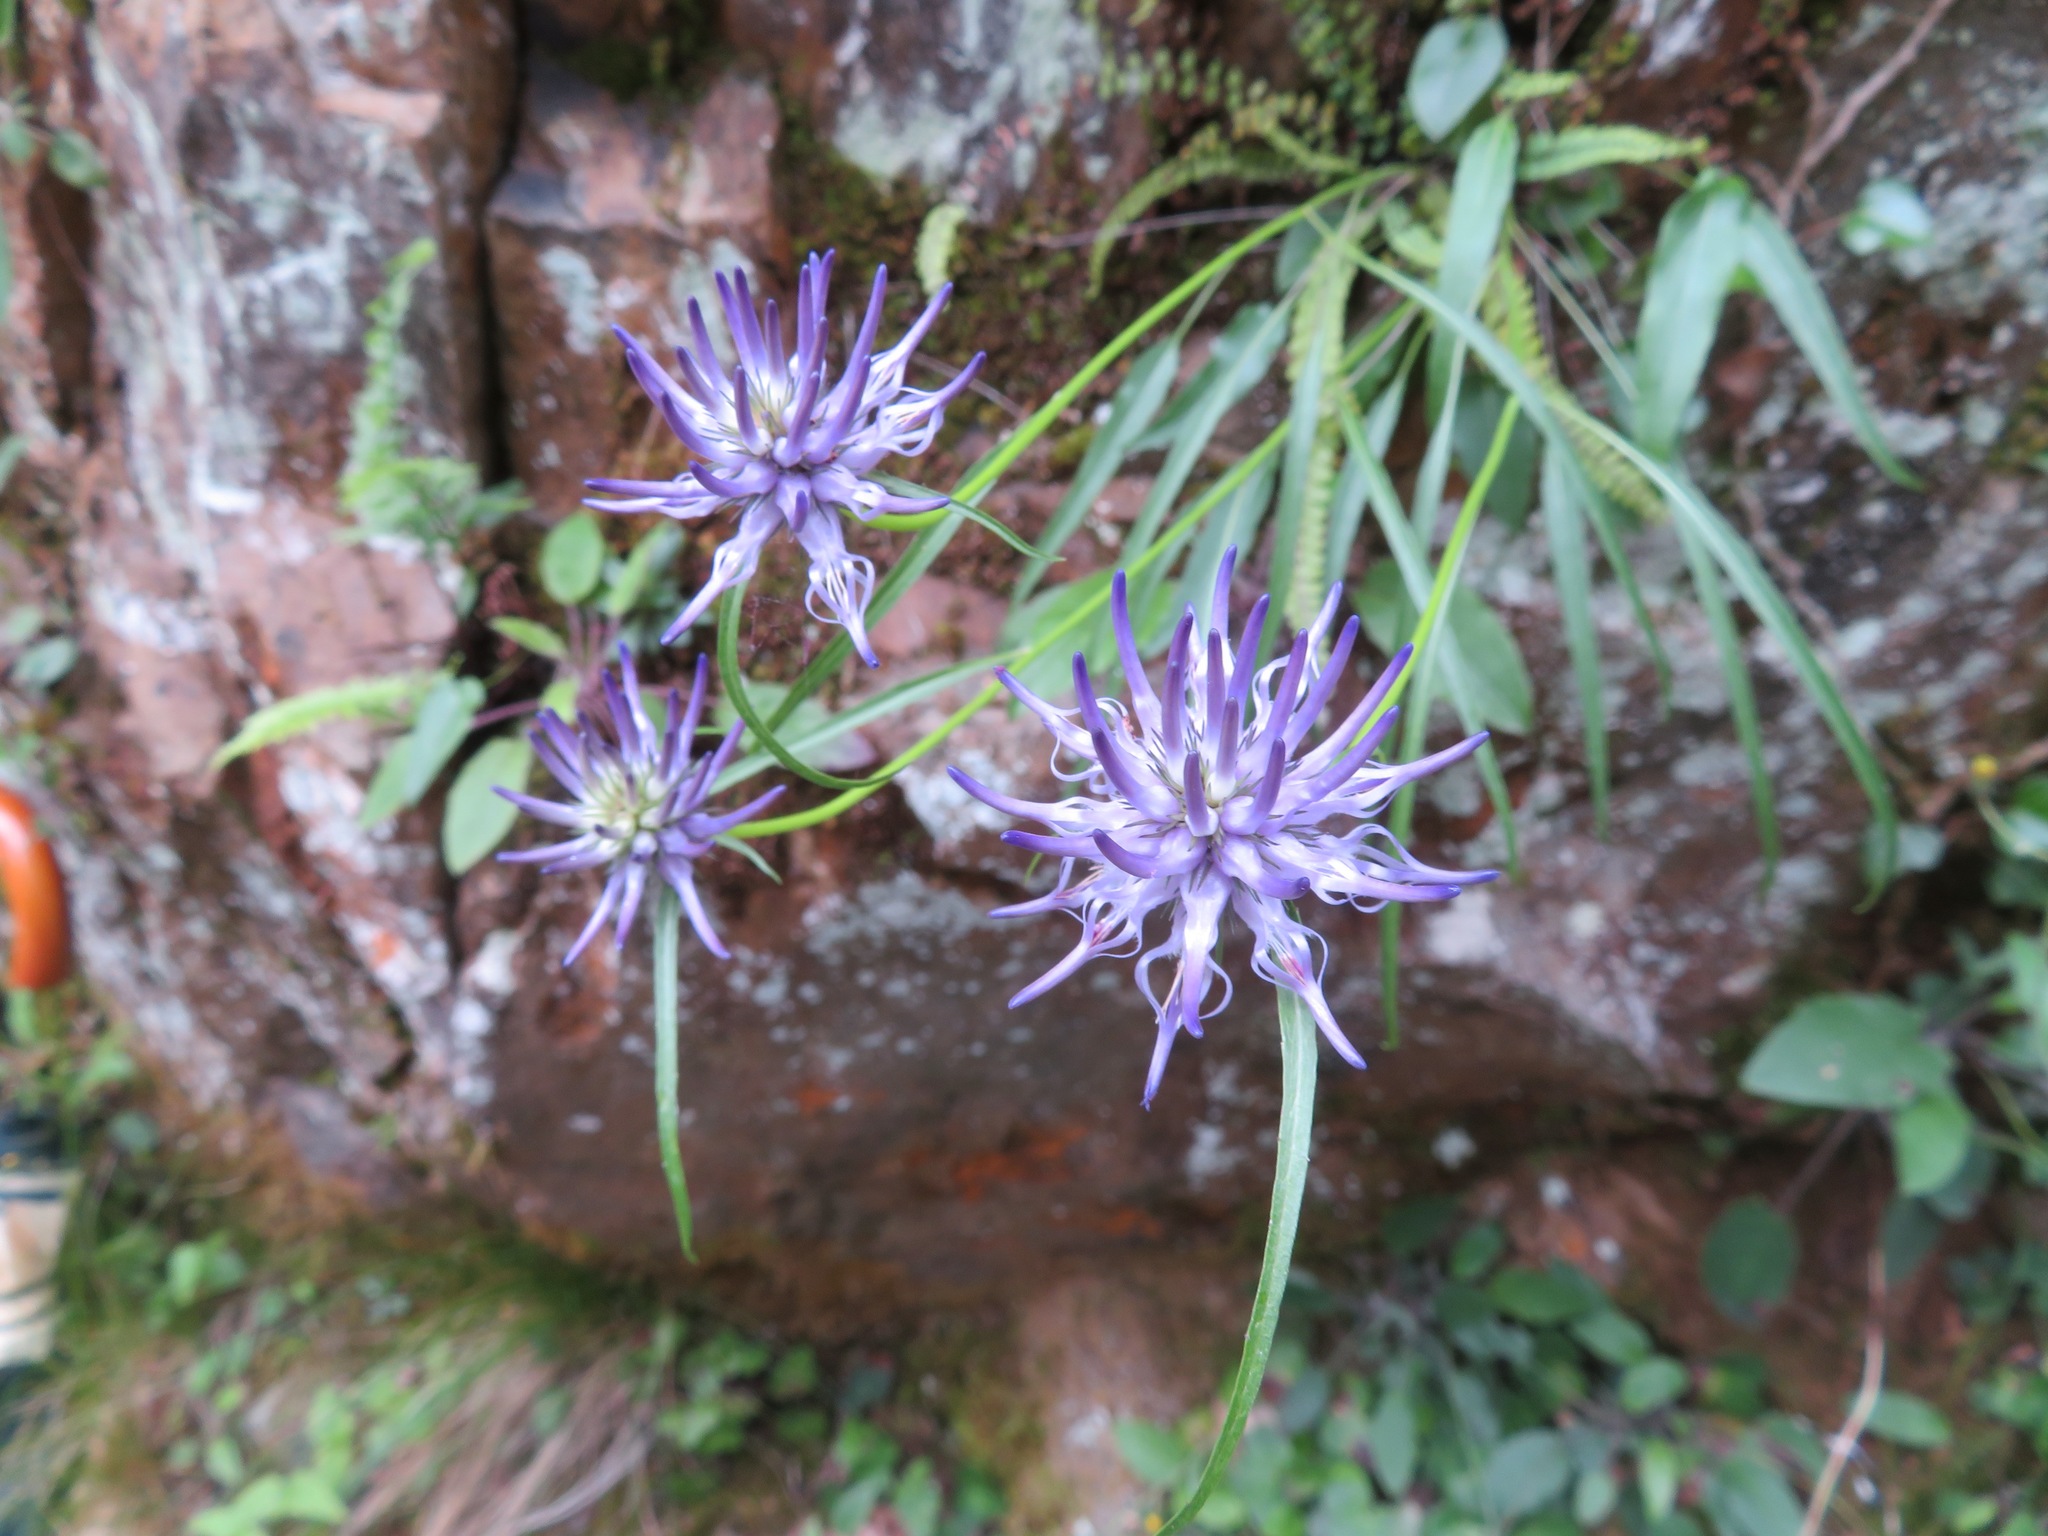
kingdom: Plantae
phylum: Tracheophyta
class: Magnoliopsida
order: Asterales
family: Campanulaceae
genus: Phyteuma
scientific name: Phyteuma scheuchzeri
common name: Oxford rampion
